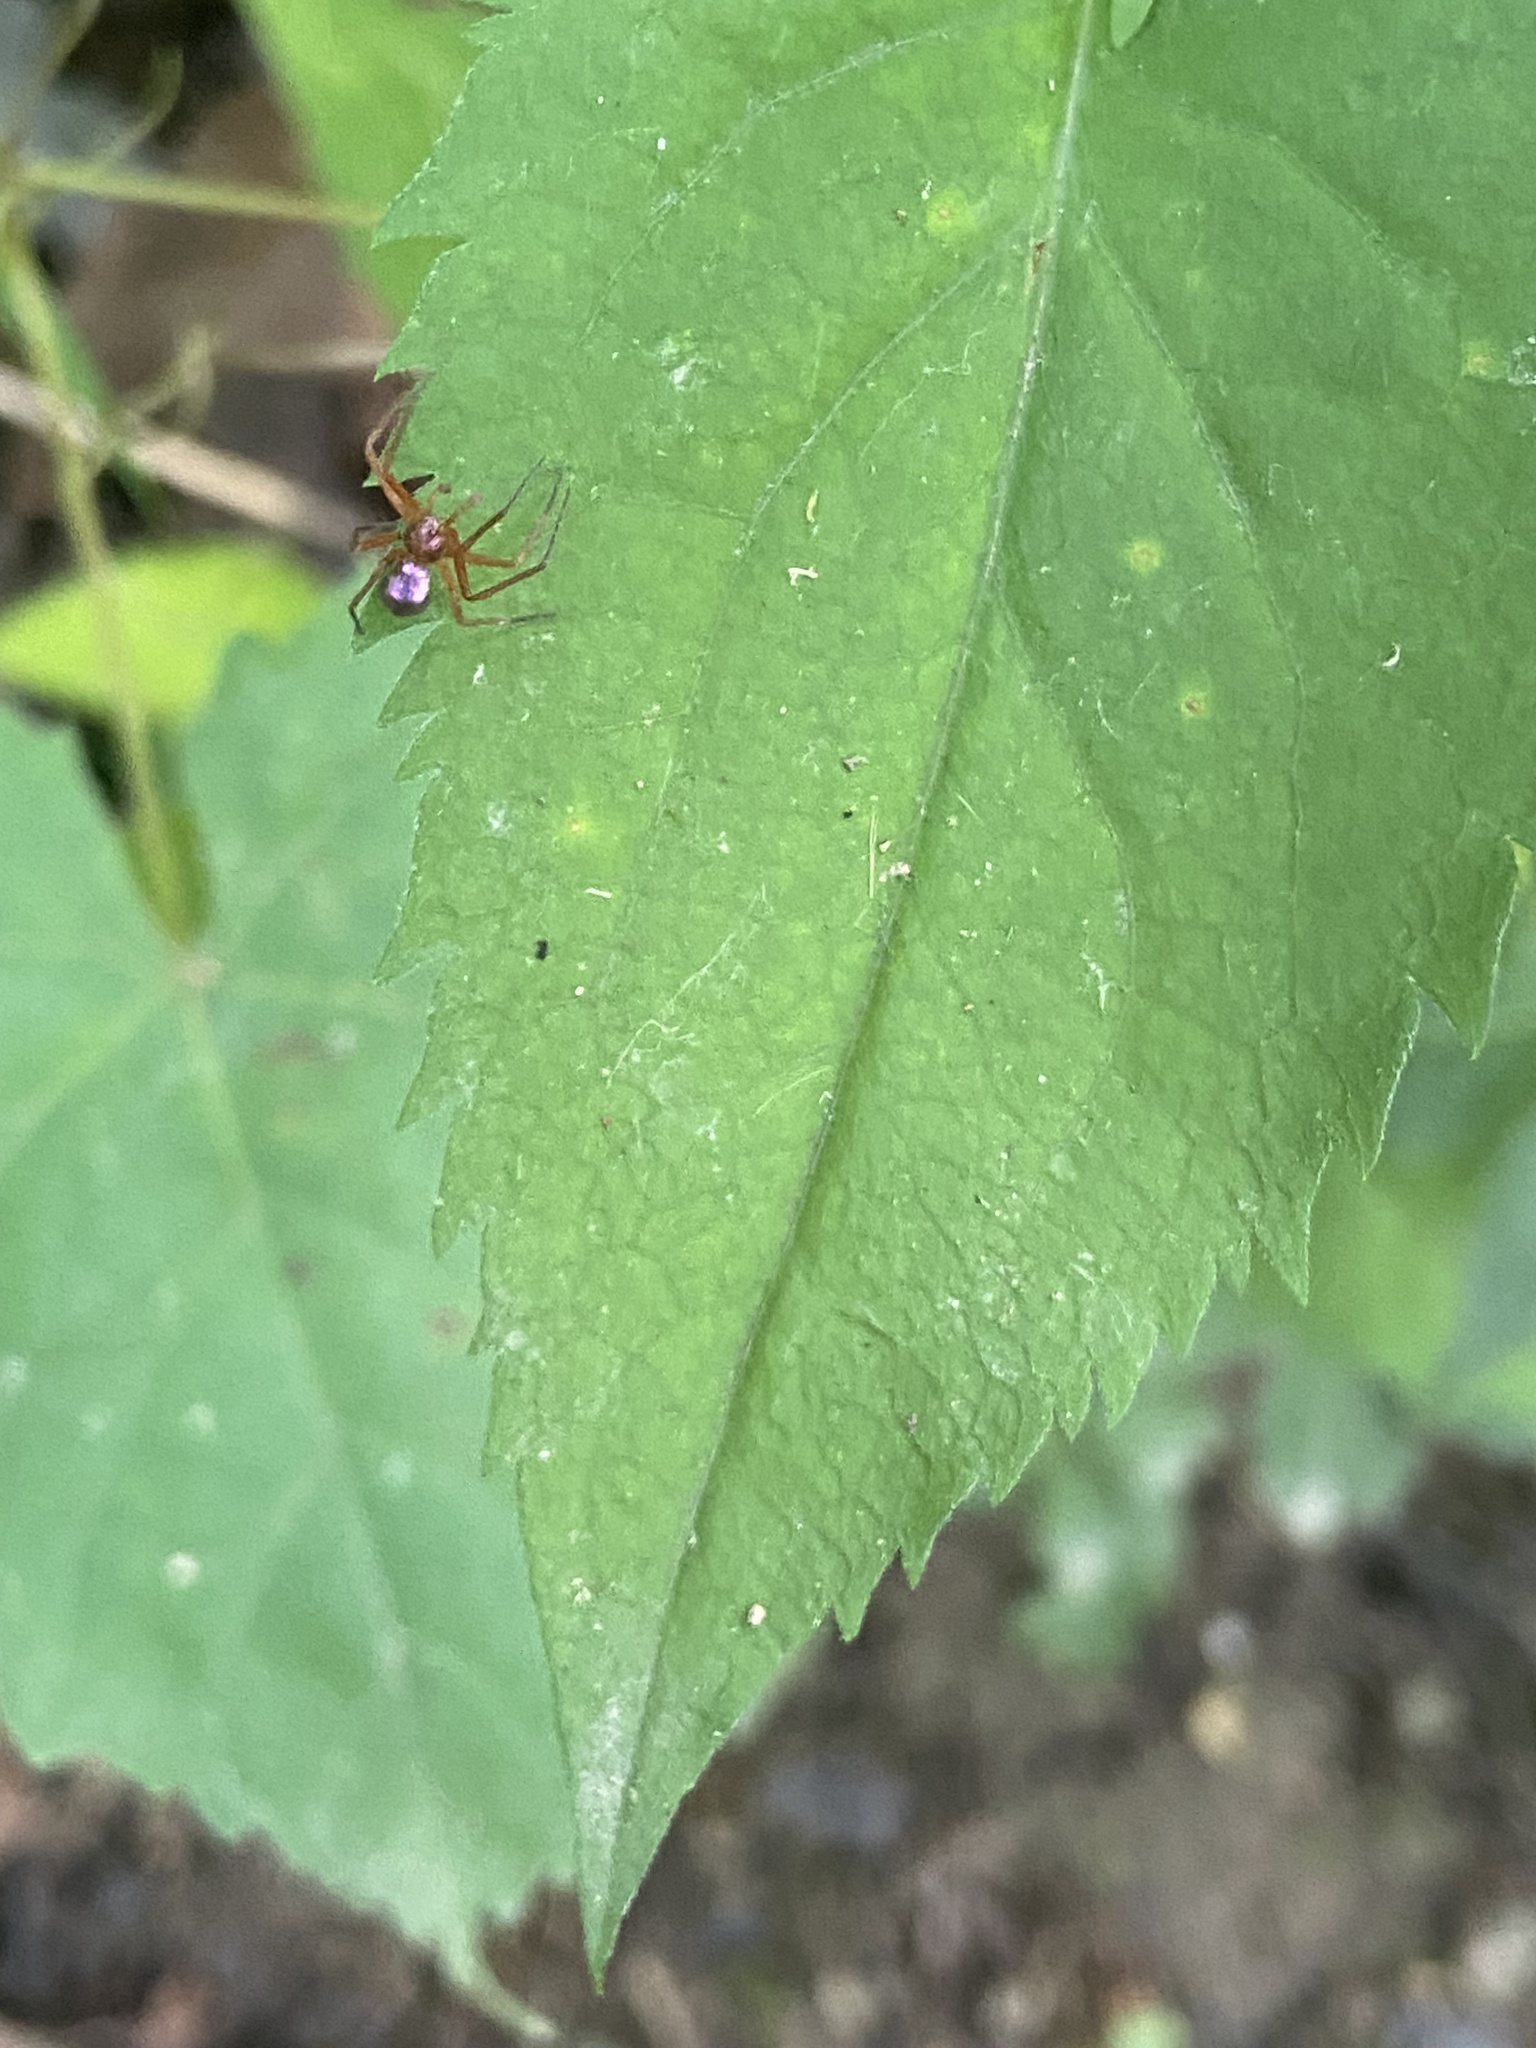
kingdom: Animalia
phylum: Arthropoda
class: Arachnida
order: Araneae
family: Philodromidae
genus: Philodromus
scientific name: Philodromus marxi
